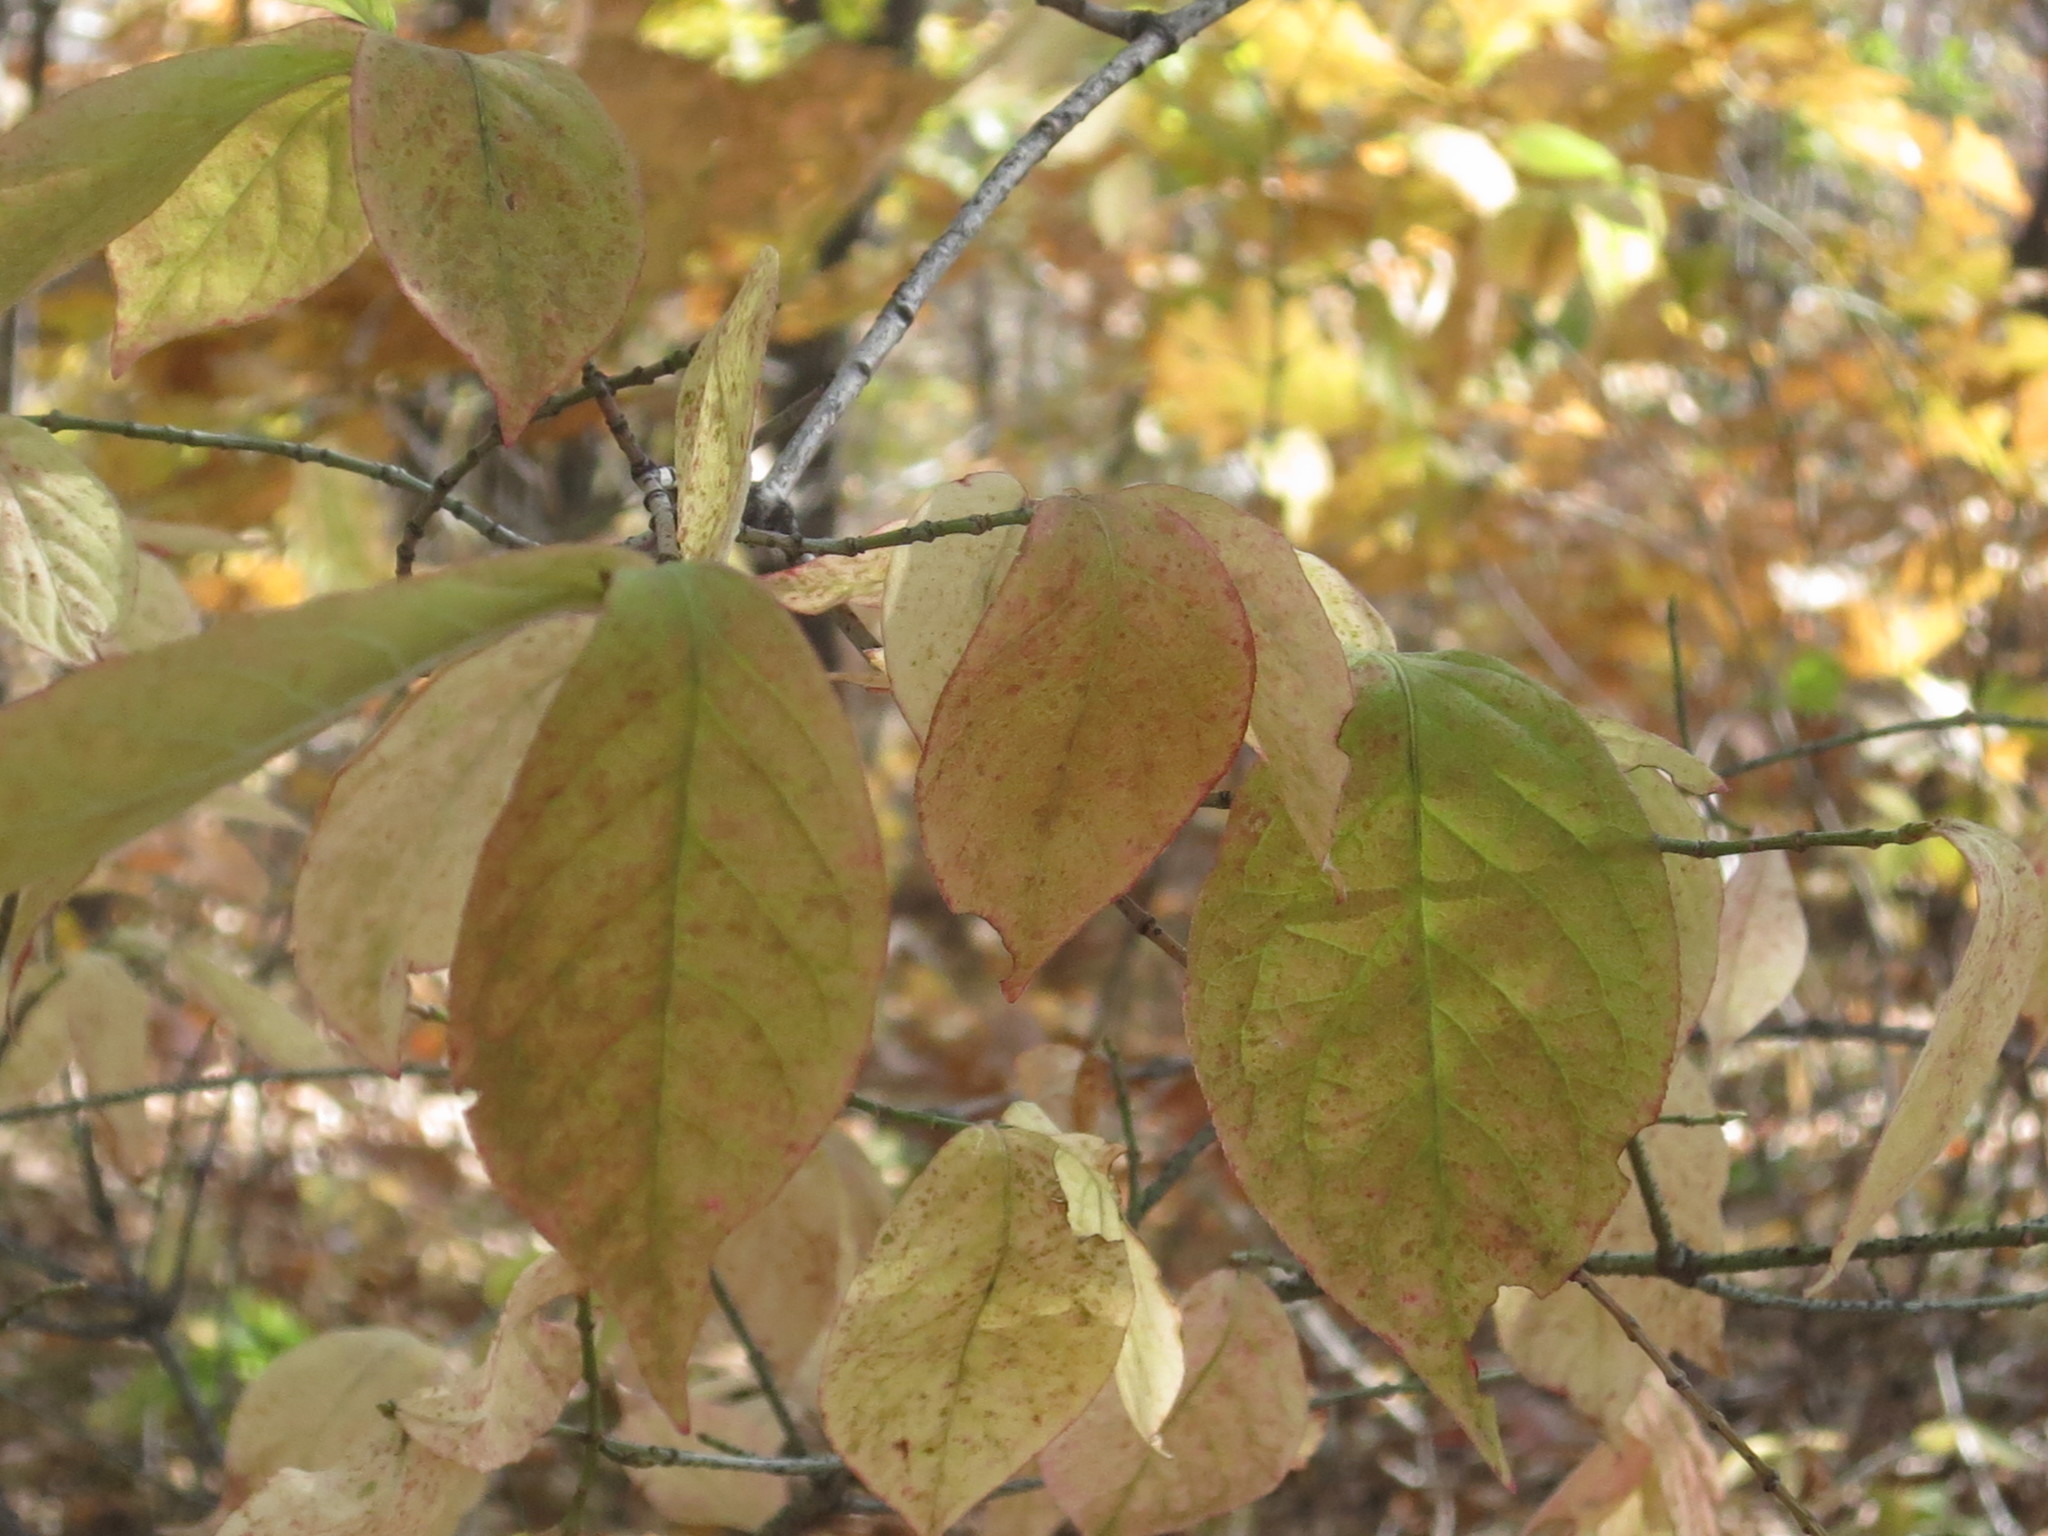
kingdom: Plantae
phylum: Tracheophyta
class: Magnoliopsida
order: Celastrales
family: Celastraceae
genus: Euonymus
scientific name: Euonymus verrucosus
